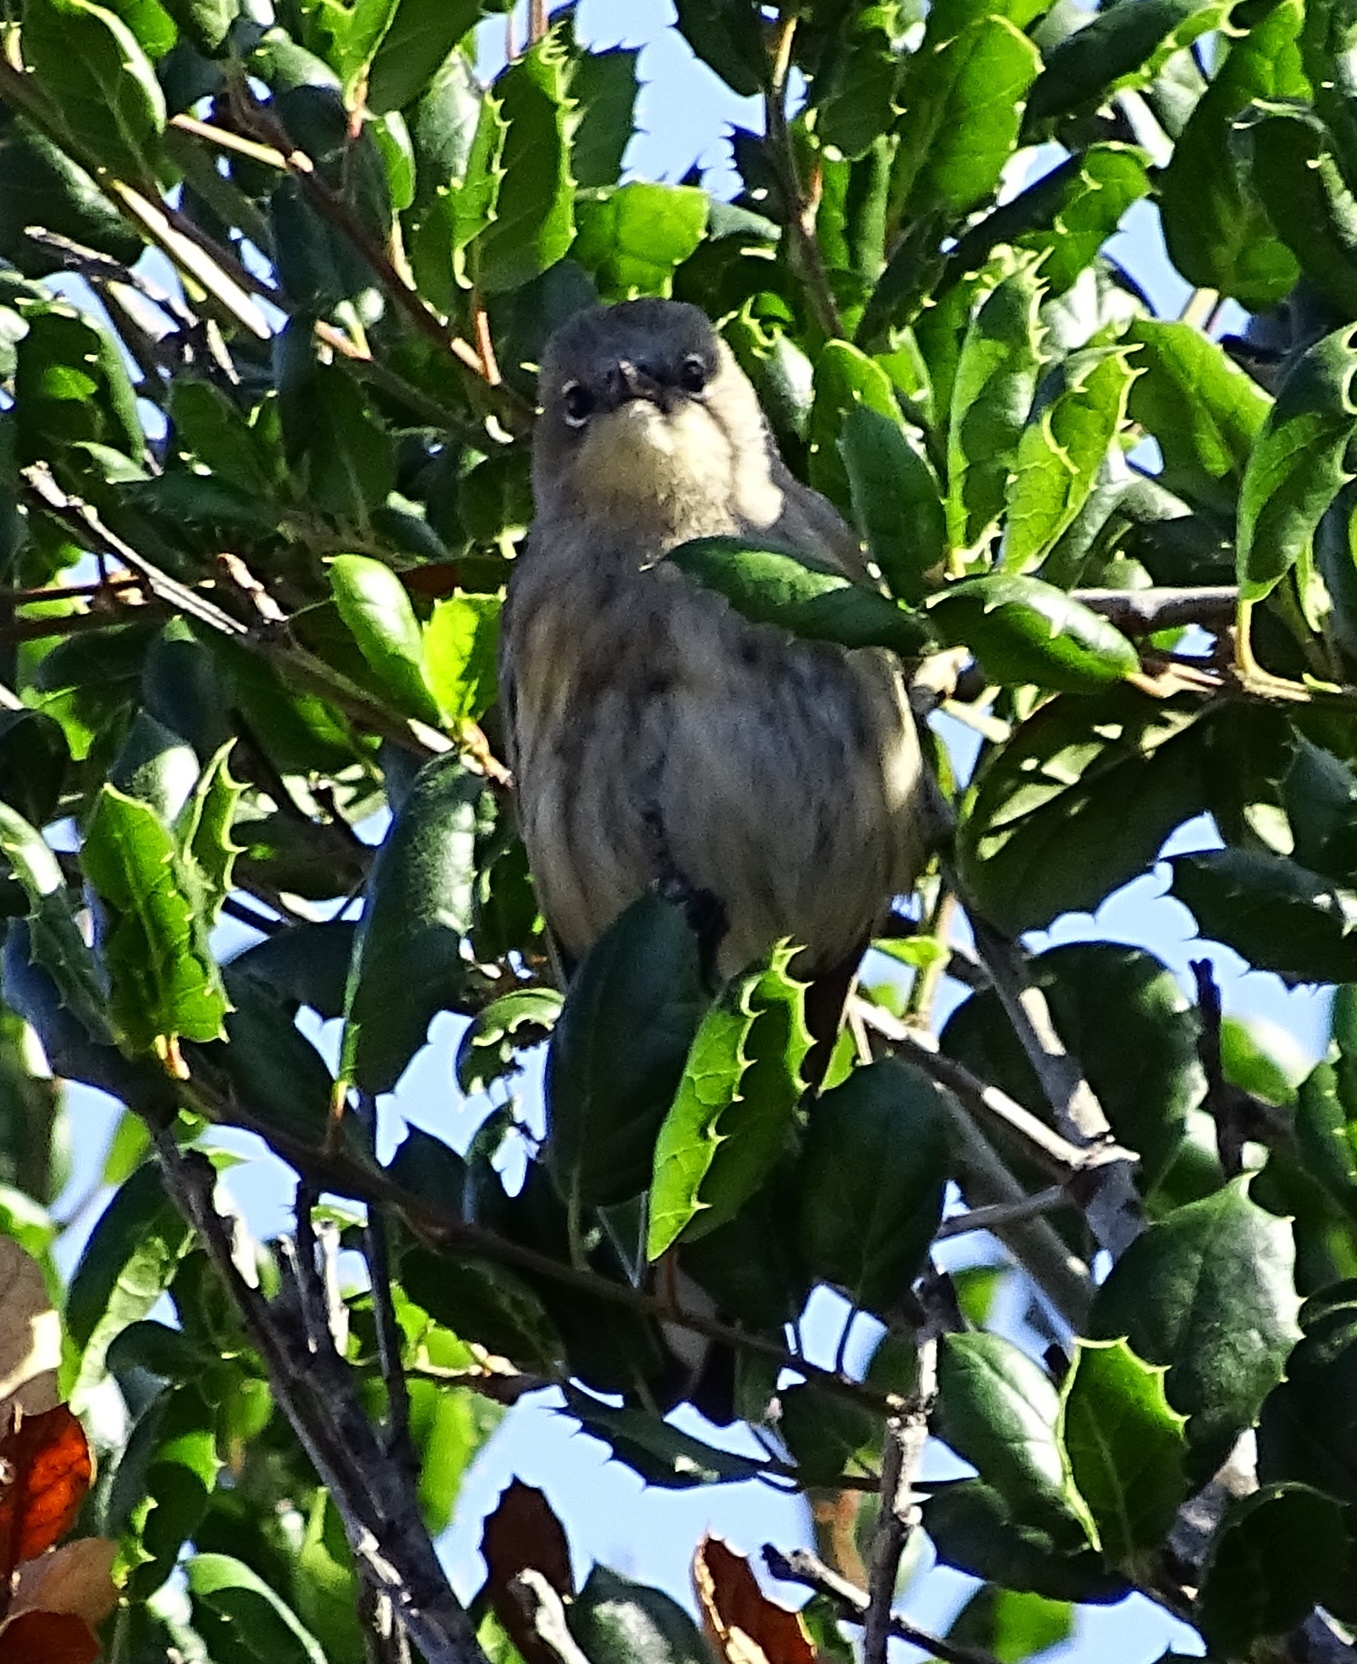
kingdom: Animalia
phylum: Chordata
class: Aves
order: Passeriformes
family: Parulidae
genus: Setophaga
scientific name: Setophaga auduboni
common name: Audubon's warbler
